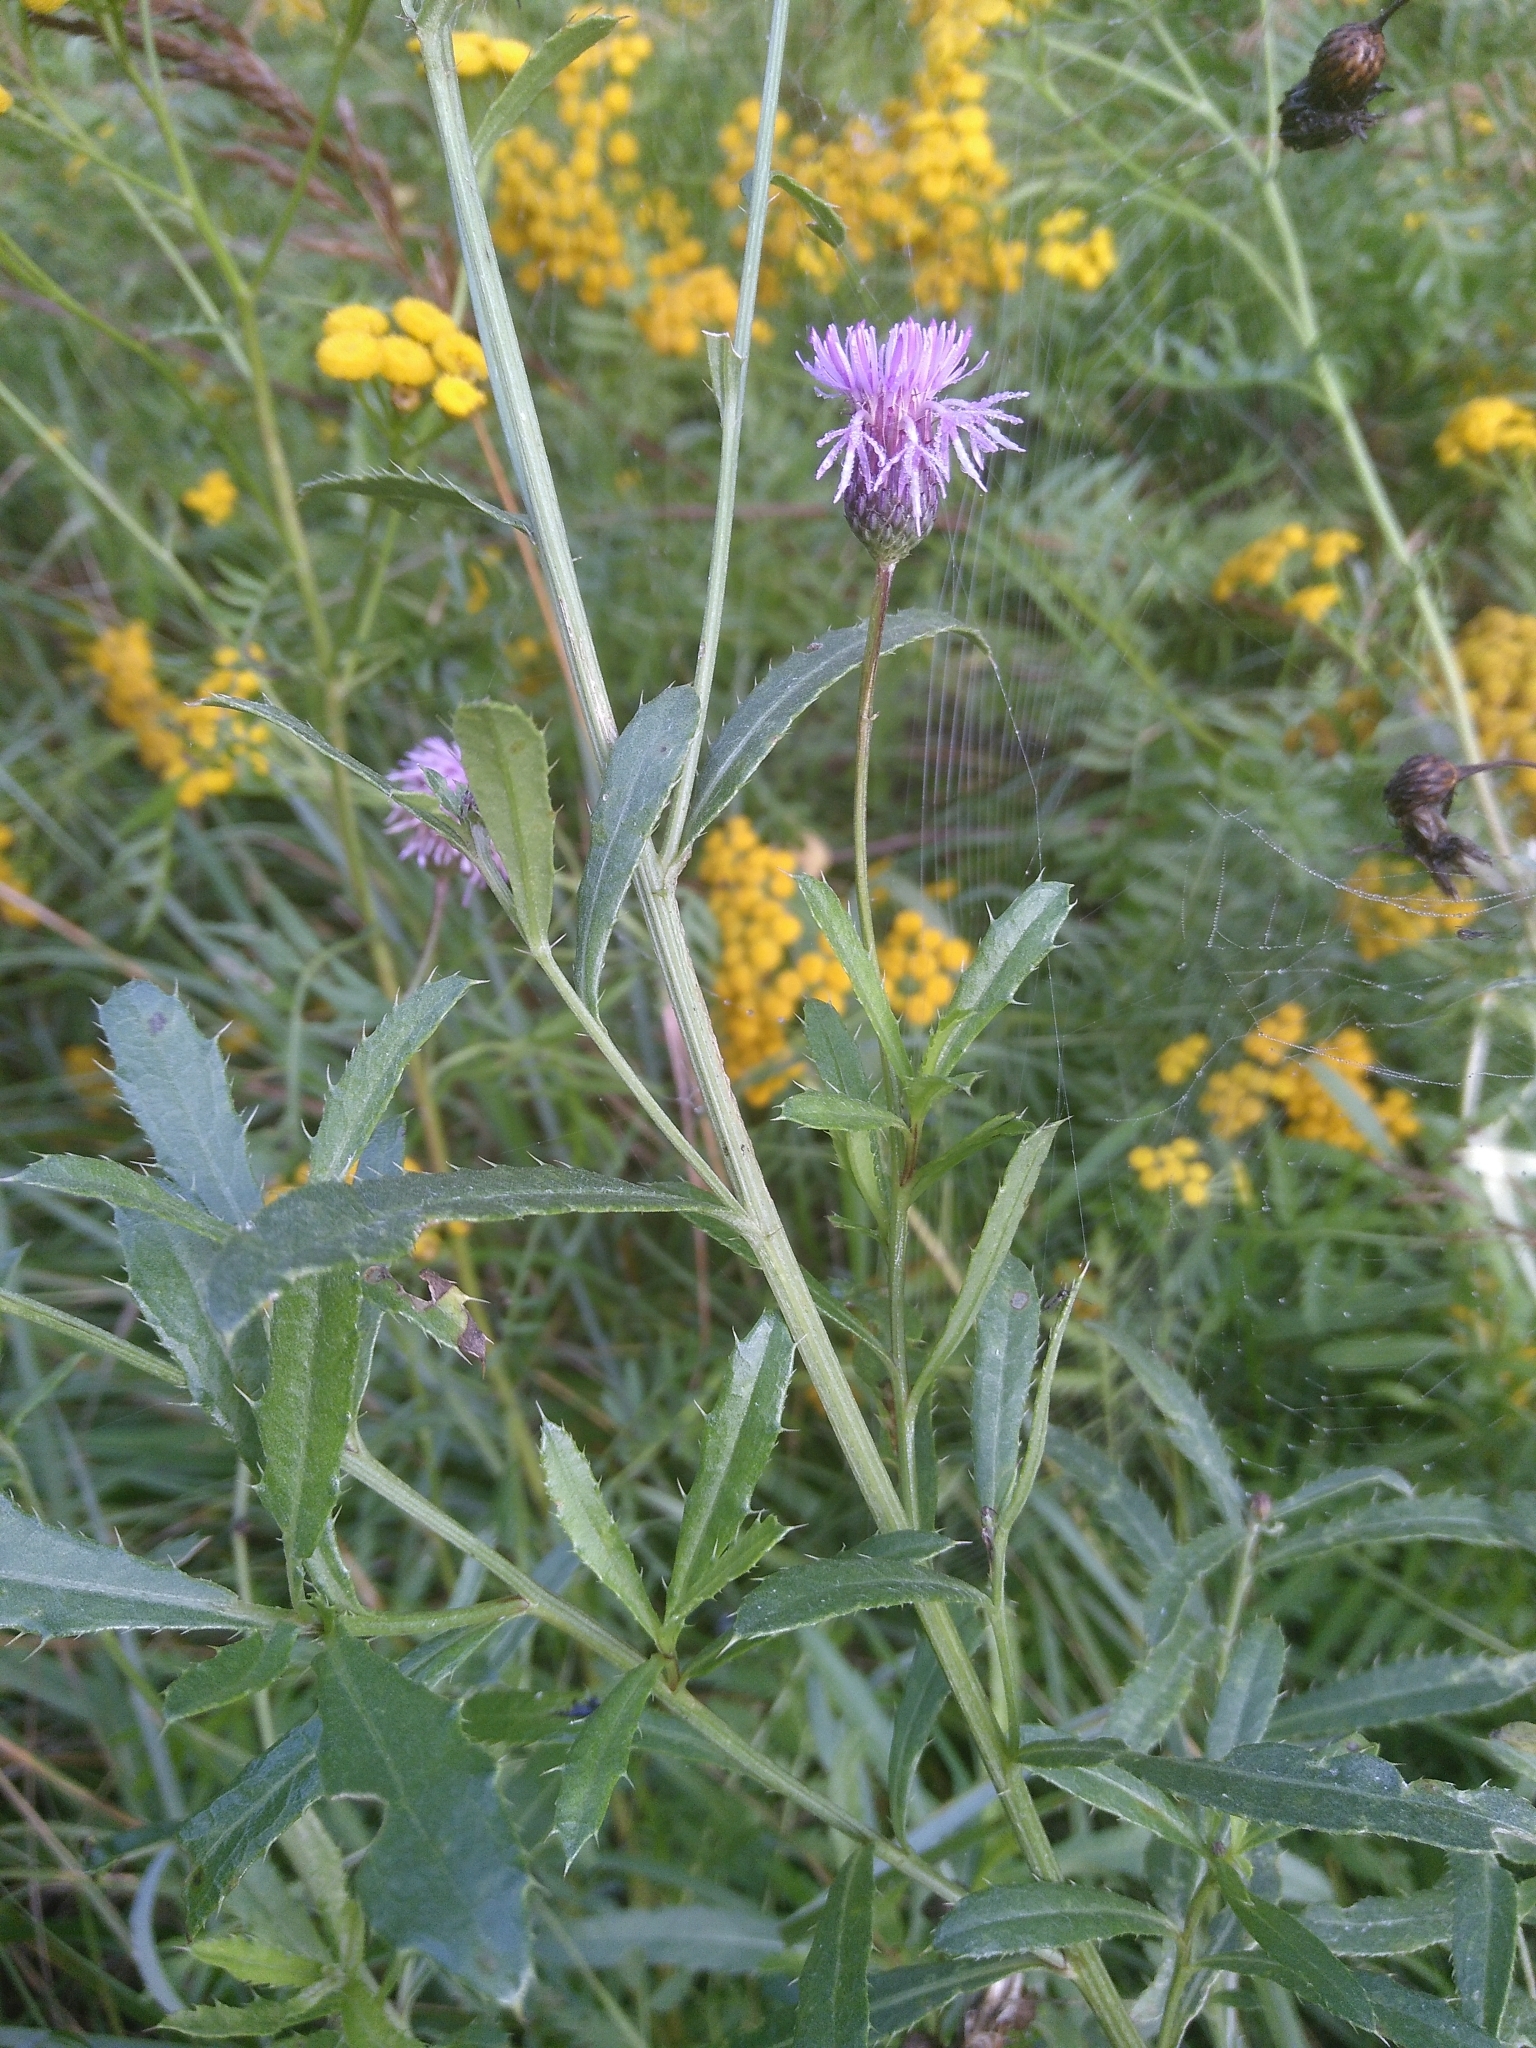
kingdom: Plantae
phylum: Tracheophyta
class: Magnoliopsida
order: Asterales
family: Asteraceae
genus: Cirsium
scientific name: Cirsium arvense
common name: Creeping thistle
